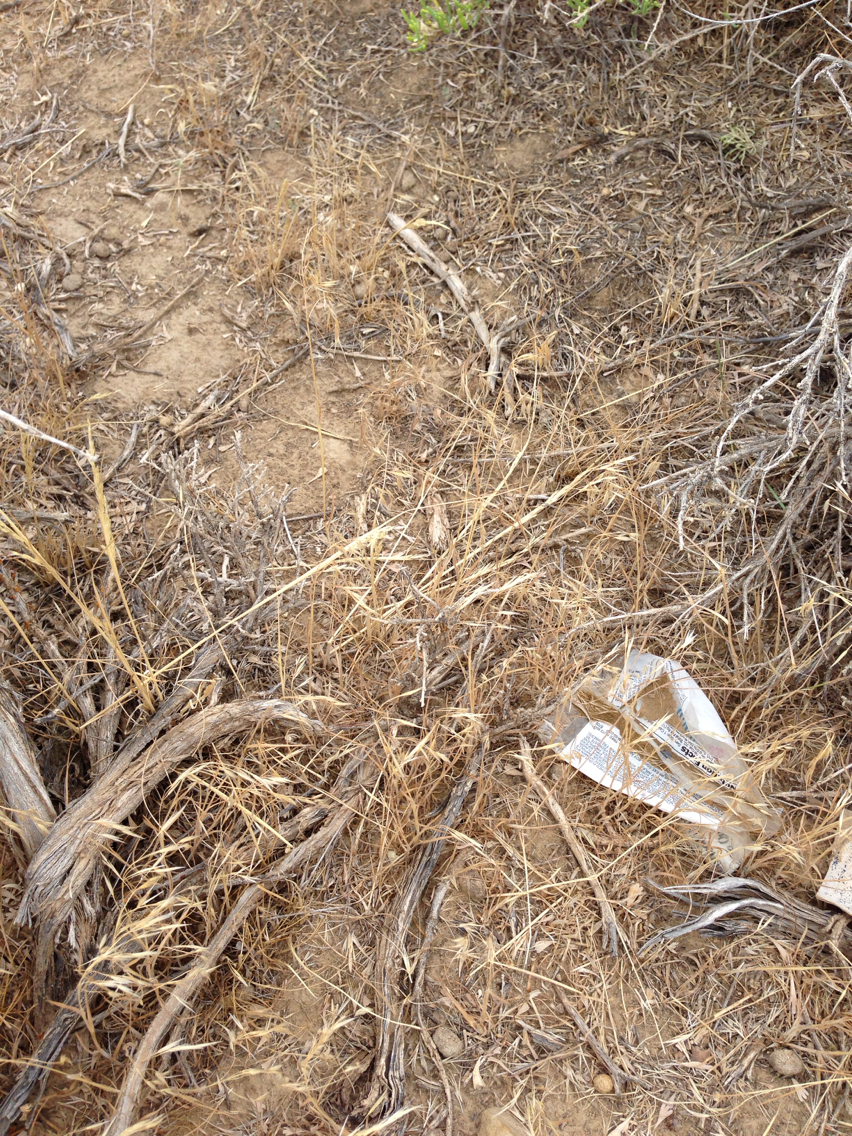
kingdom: Plantae
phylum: Tracheophyta
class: Liliopsida
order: Poales
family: Poaceae
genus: Bromus
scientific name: Bromus tectorum
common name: Cheatgrass
